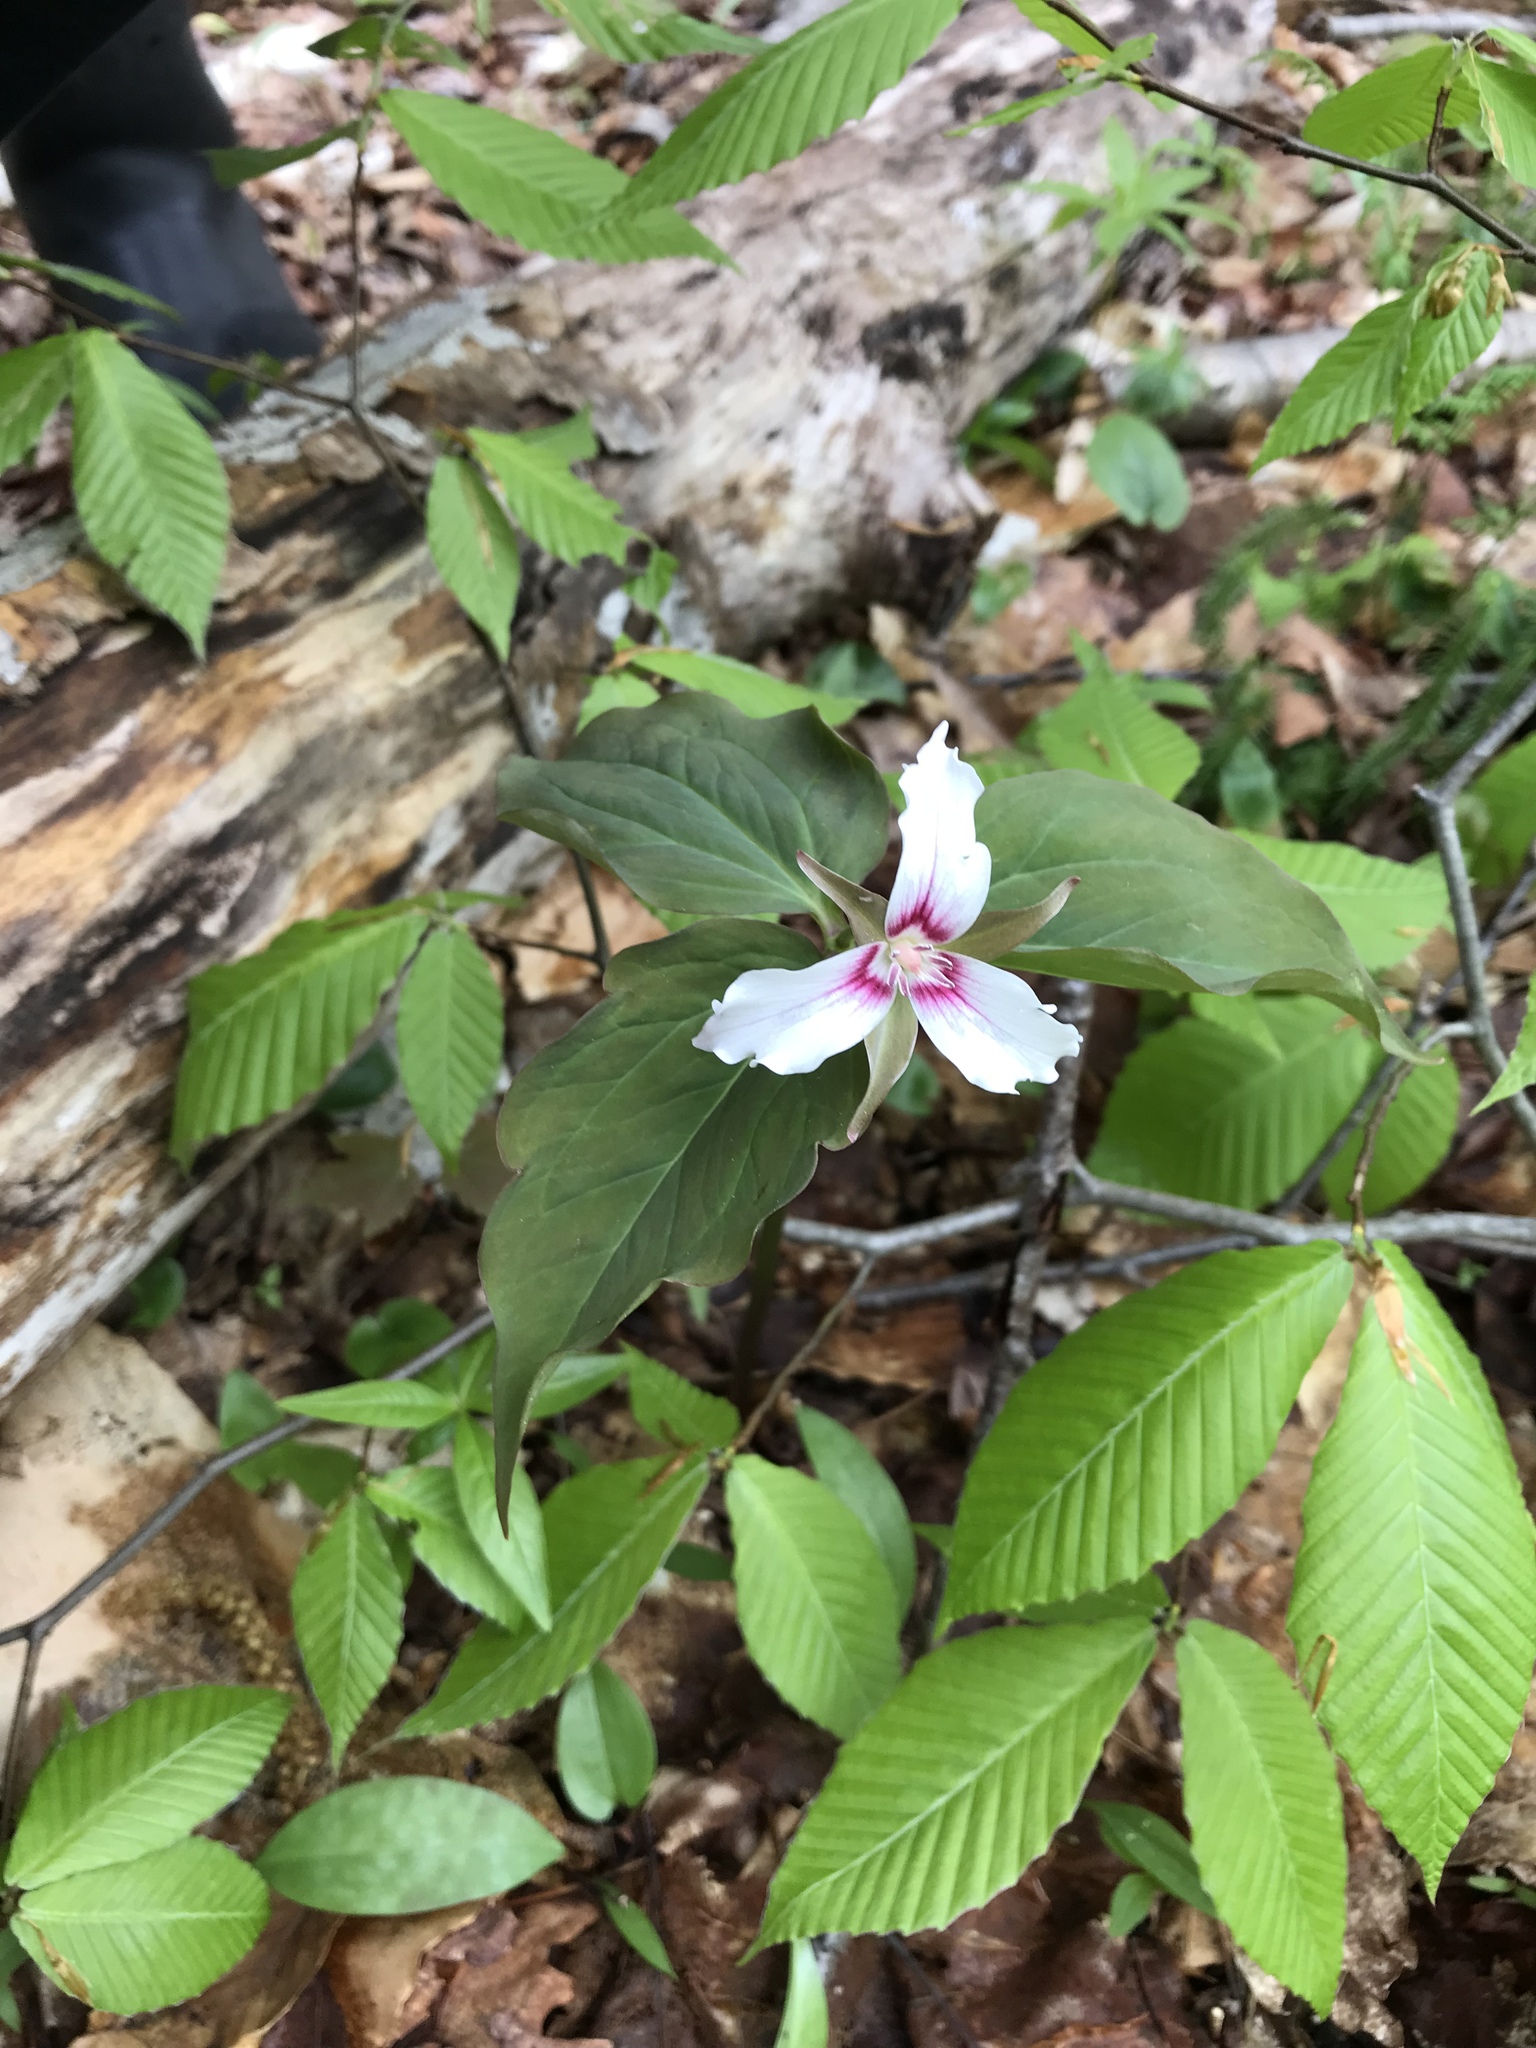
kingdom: Plantae
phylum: Tracheophyta
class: Liliopsida
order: Liliales
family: Melanthiaceae
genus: Trillium
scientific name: Trillium undulatum
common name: Paint trillium
